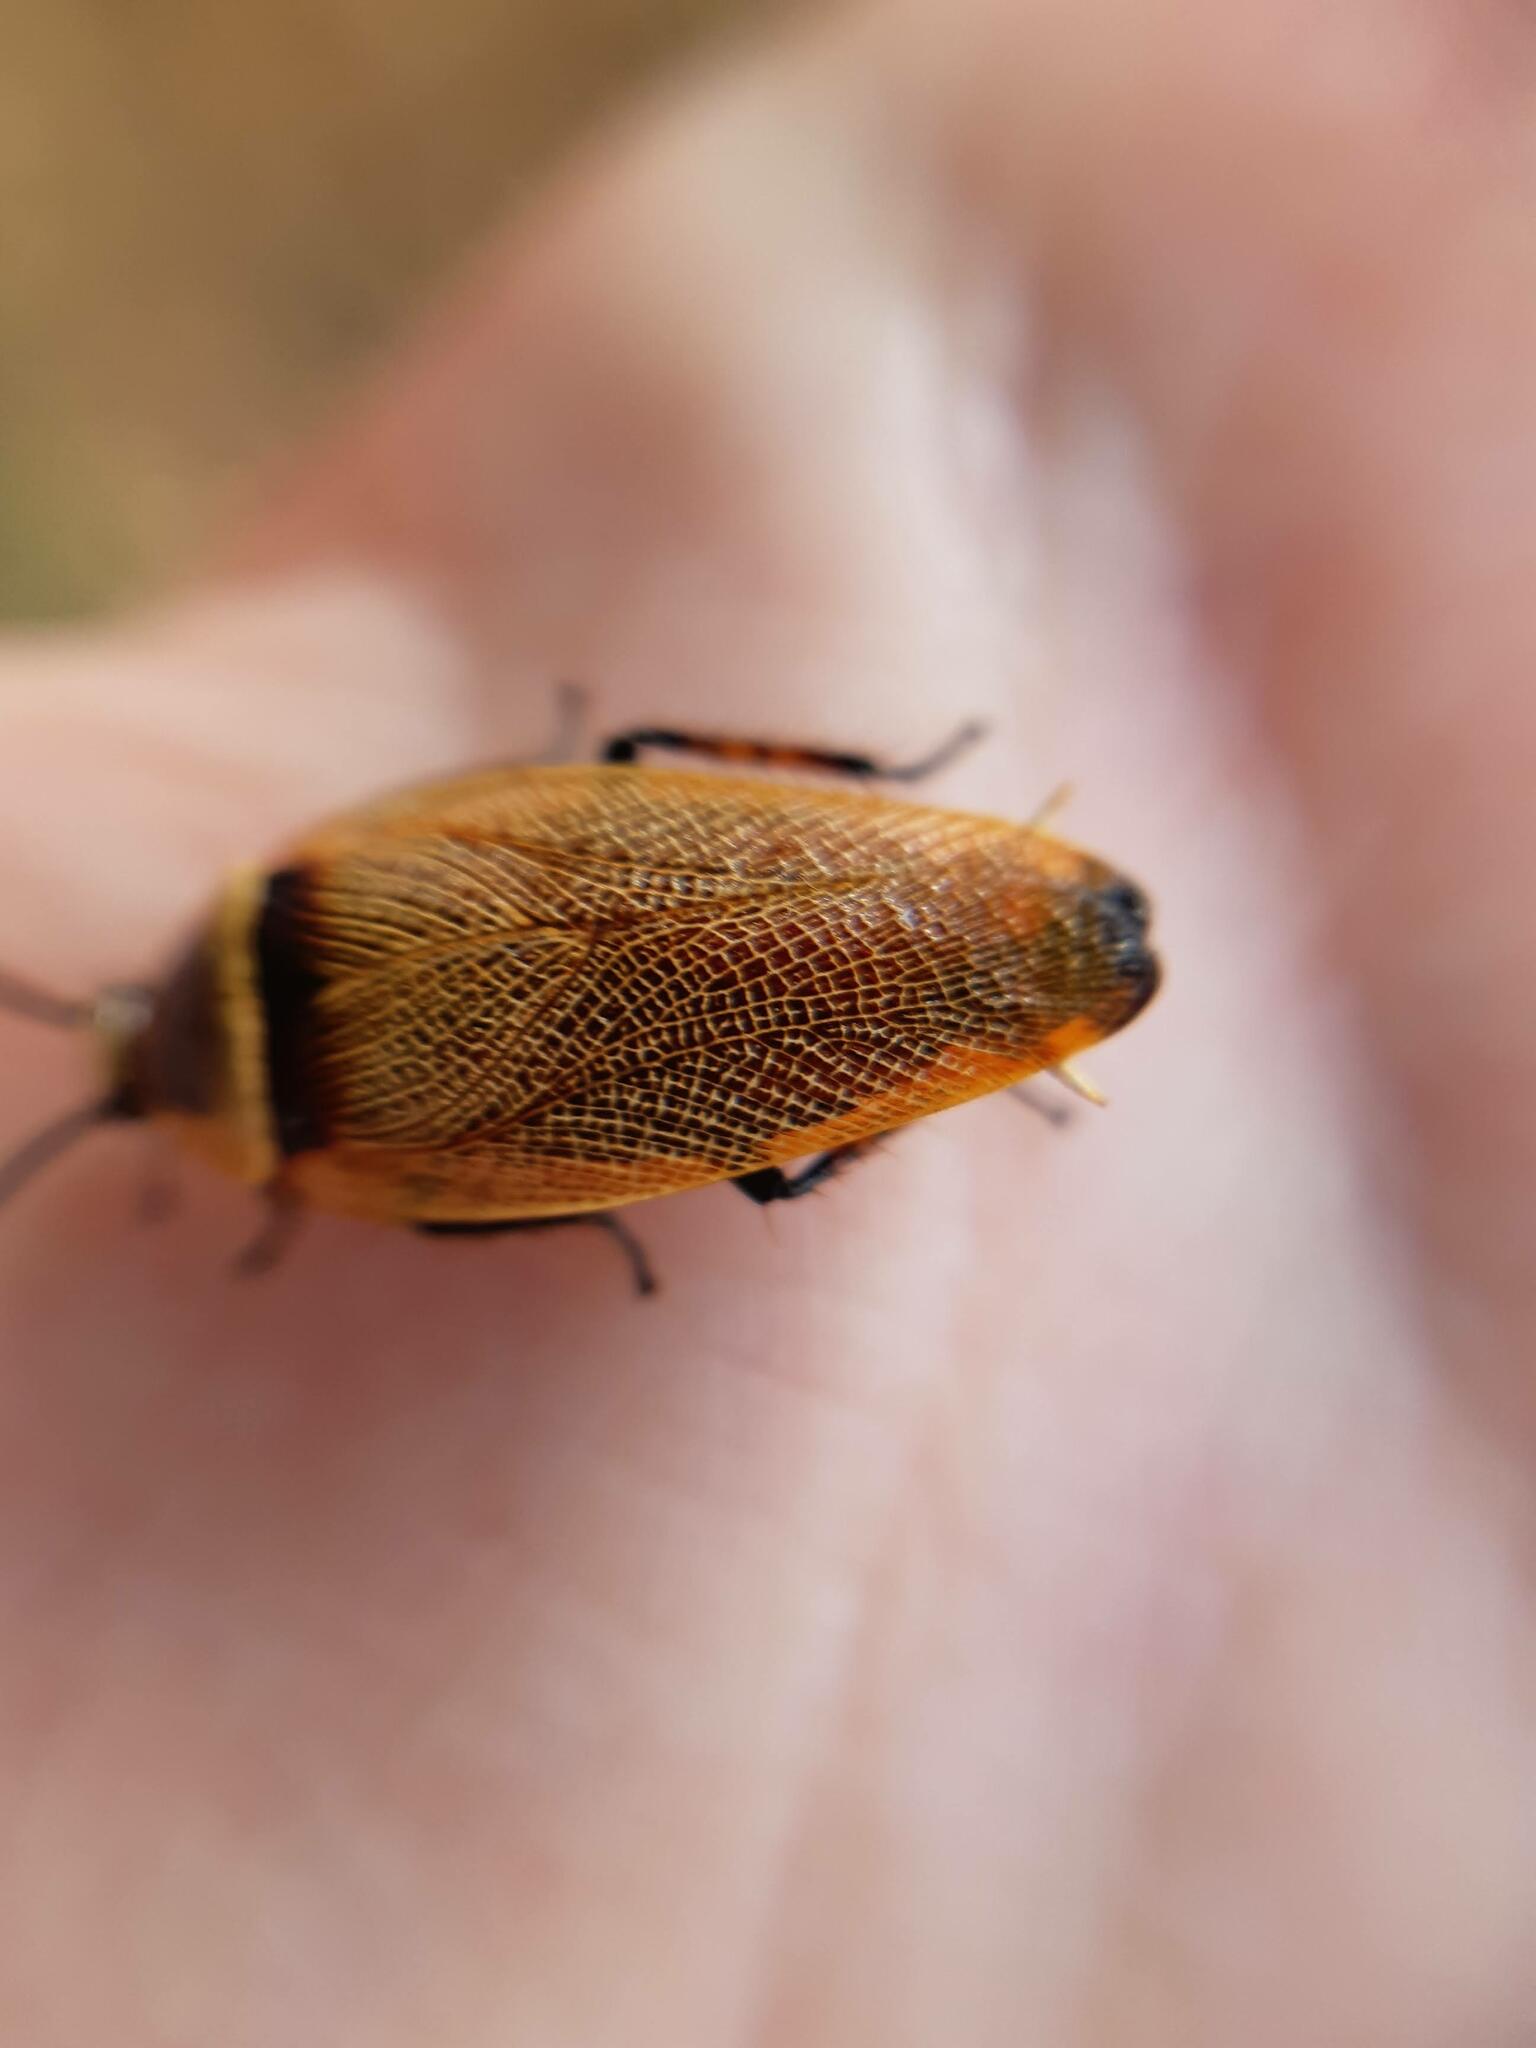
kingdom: Animalia
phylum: Arthropoda
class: Insecta
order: Blattodea
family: Ectobiidae
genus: Ellipsidion
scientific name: Ellipsidion australe
